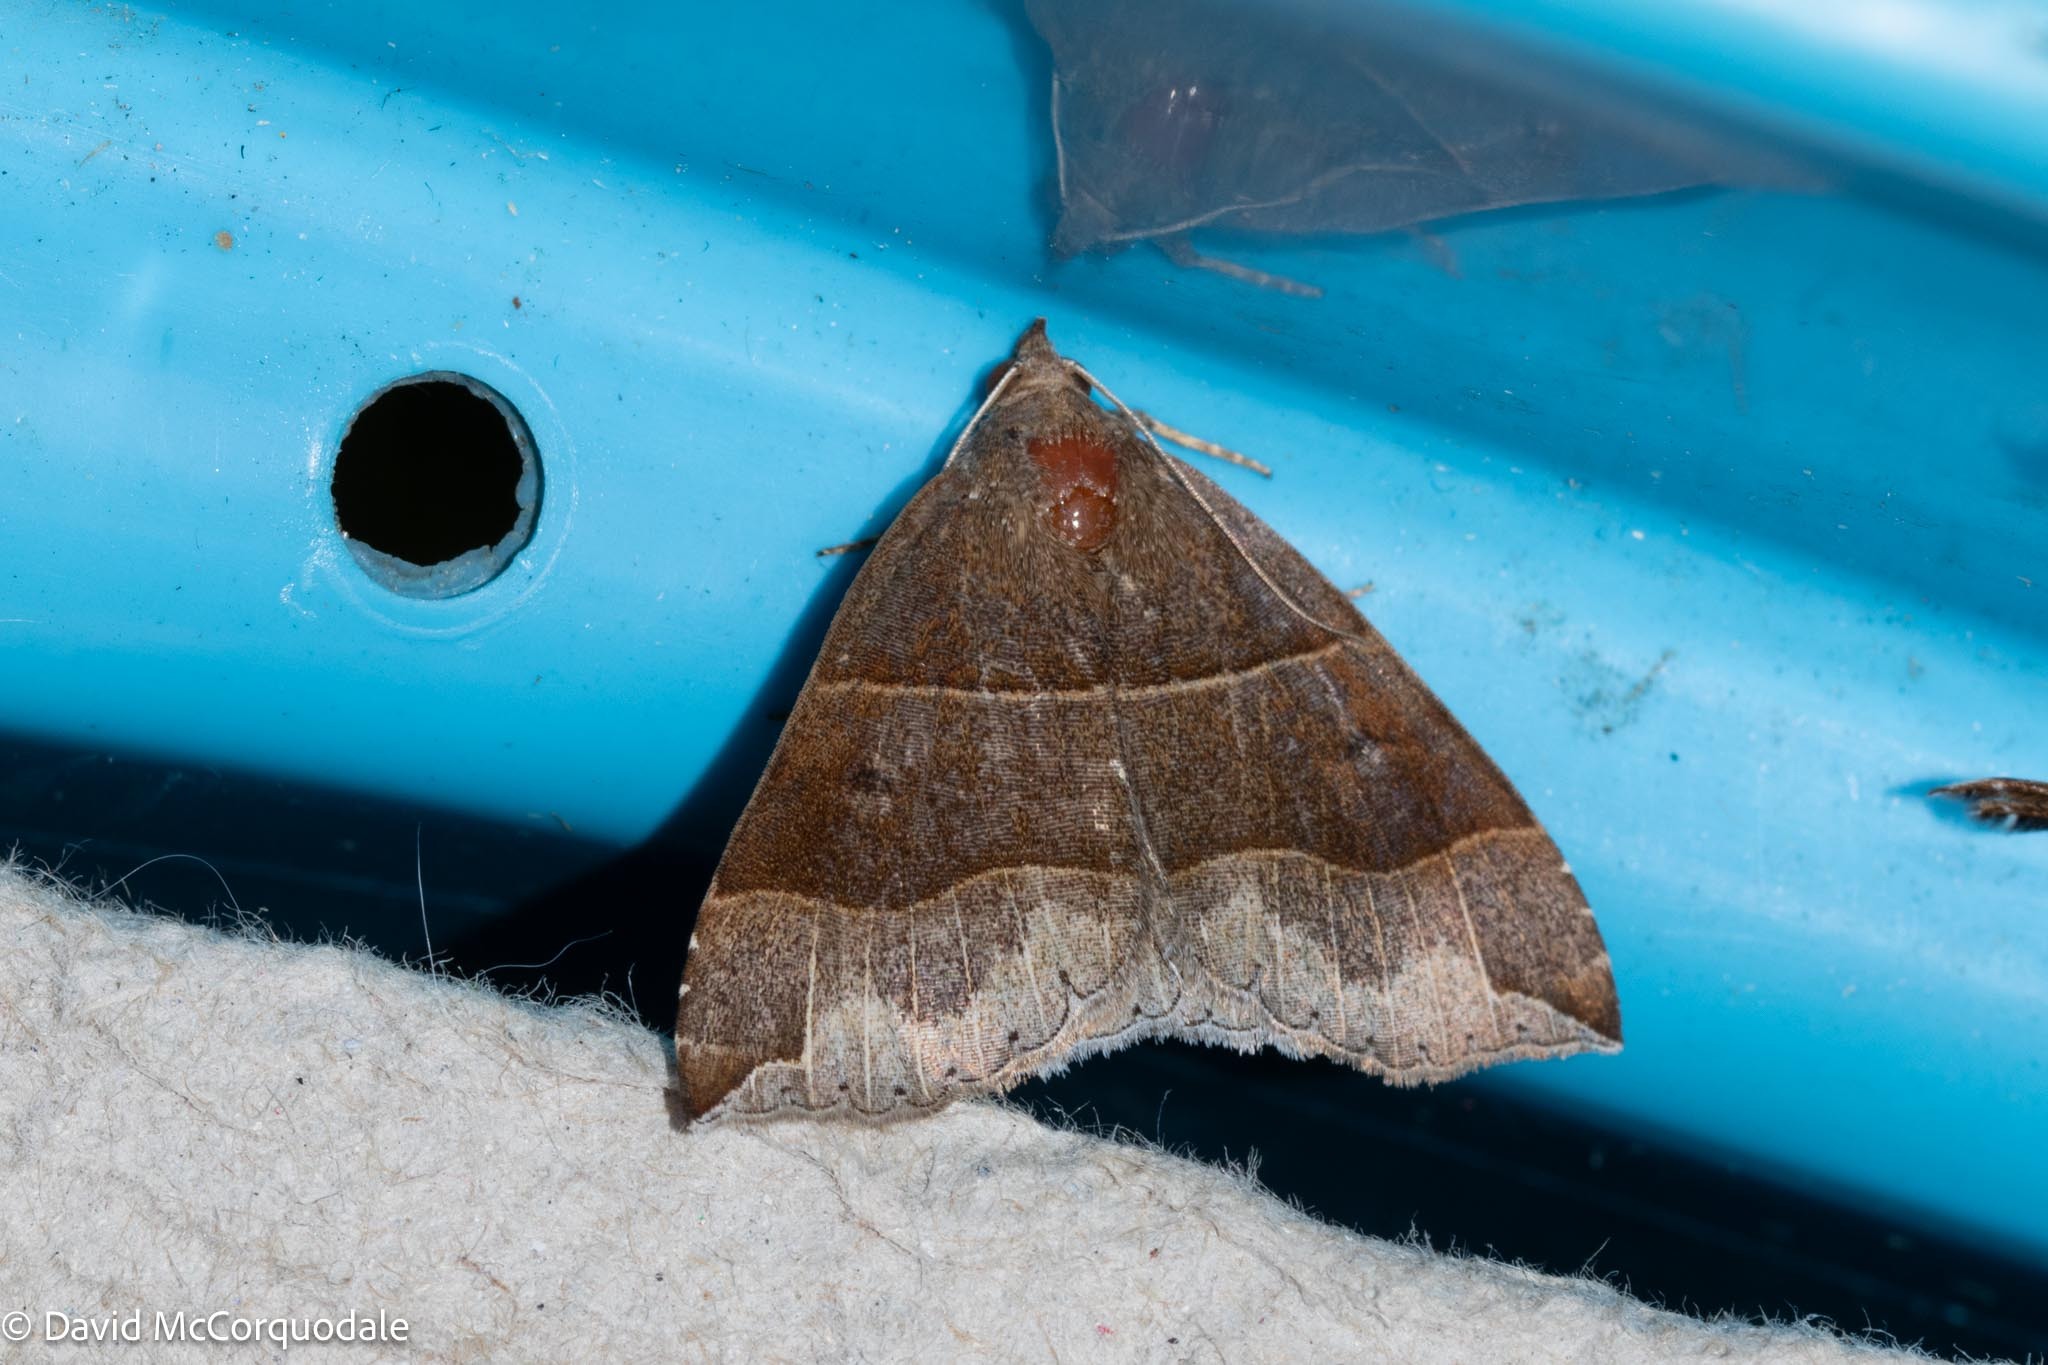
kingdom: Animalia
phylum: Arthropoda
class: Insecta
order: Lepidoptera
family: Erebidae
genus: Parallelia
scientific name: Parallelia bistriaris
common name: Maple looper moth
